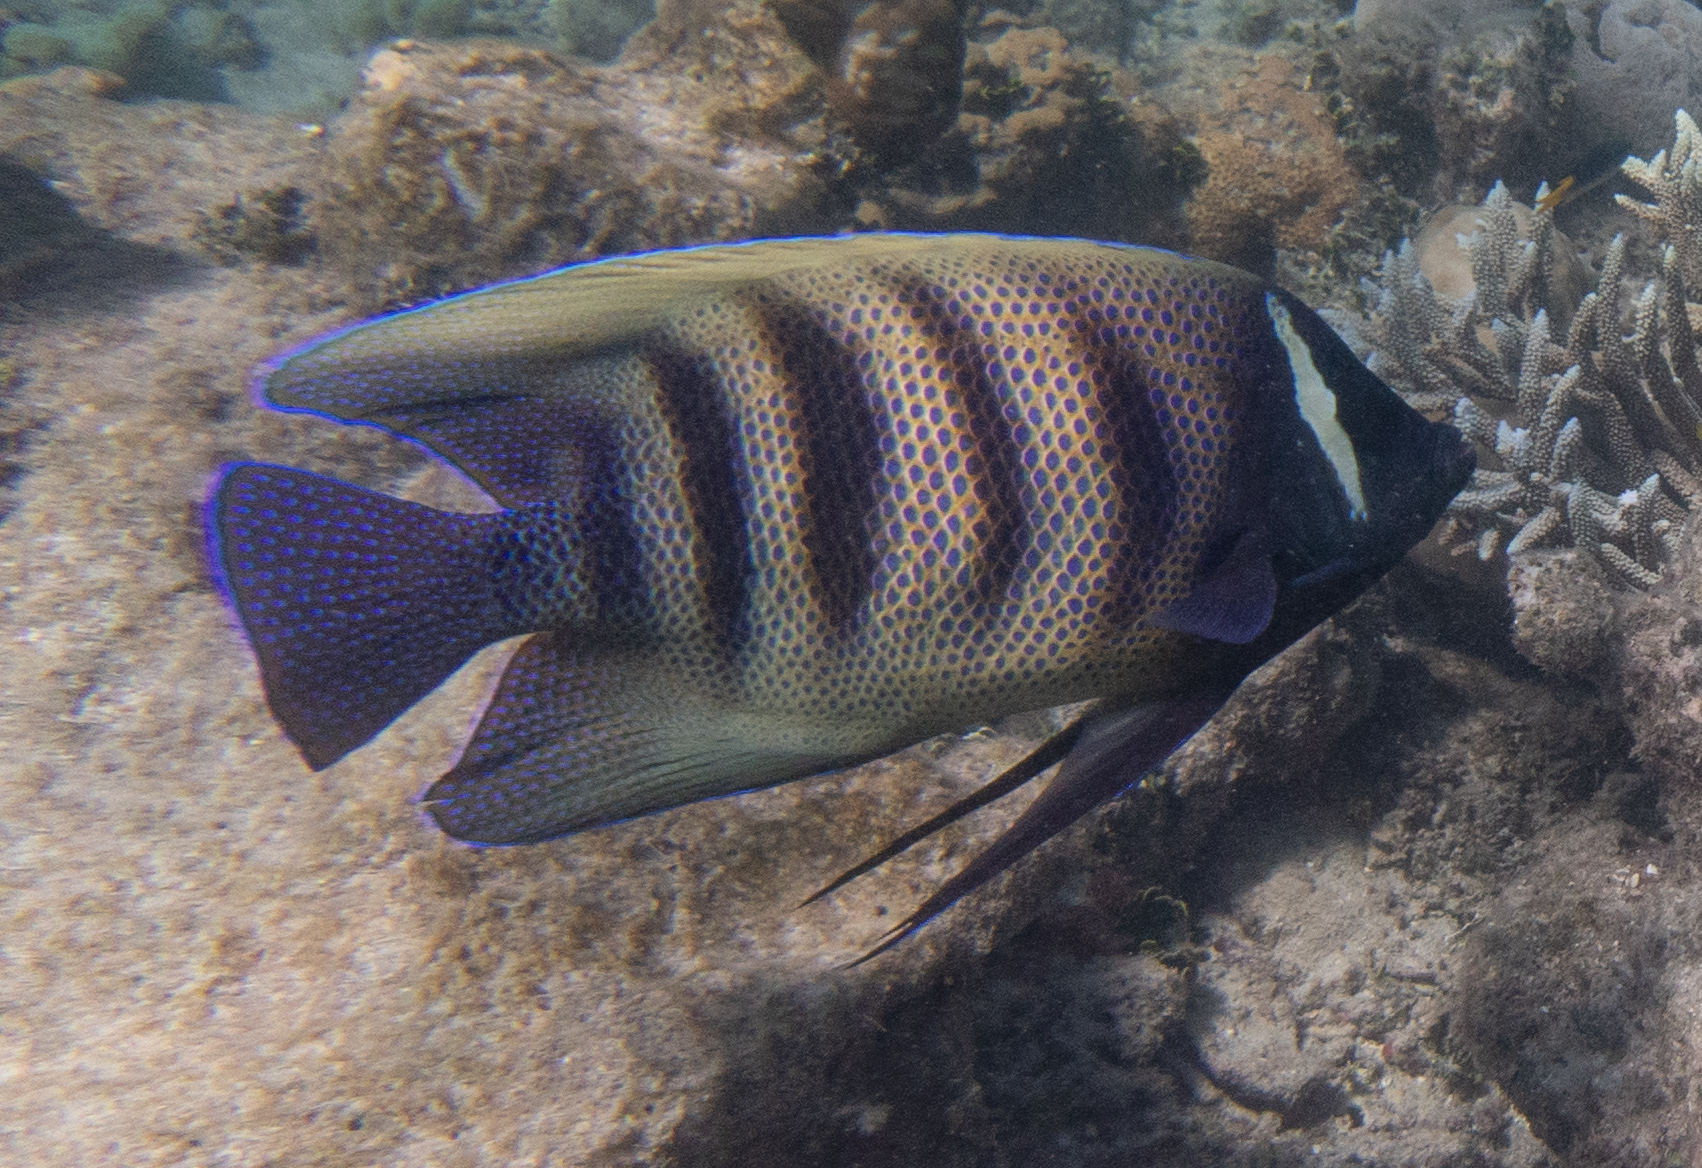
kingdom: Animalia
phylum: Chordata
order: Perciformes
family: Pomacanthidae
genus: Pomacanthus
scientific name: Pomacanthus sexstriatus
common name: Six-banded angelfish
